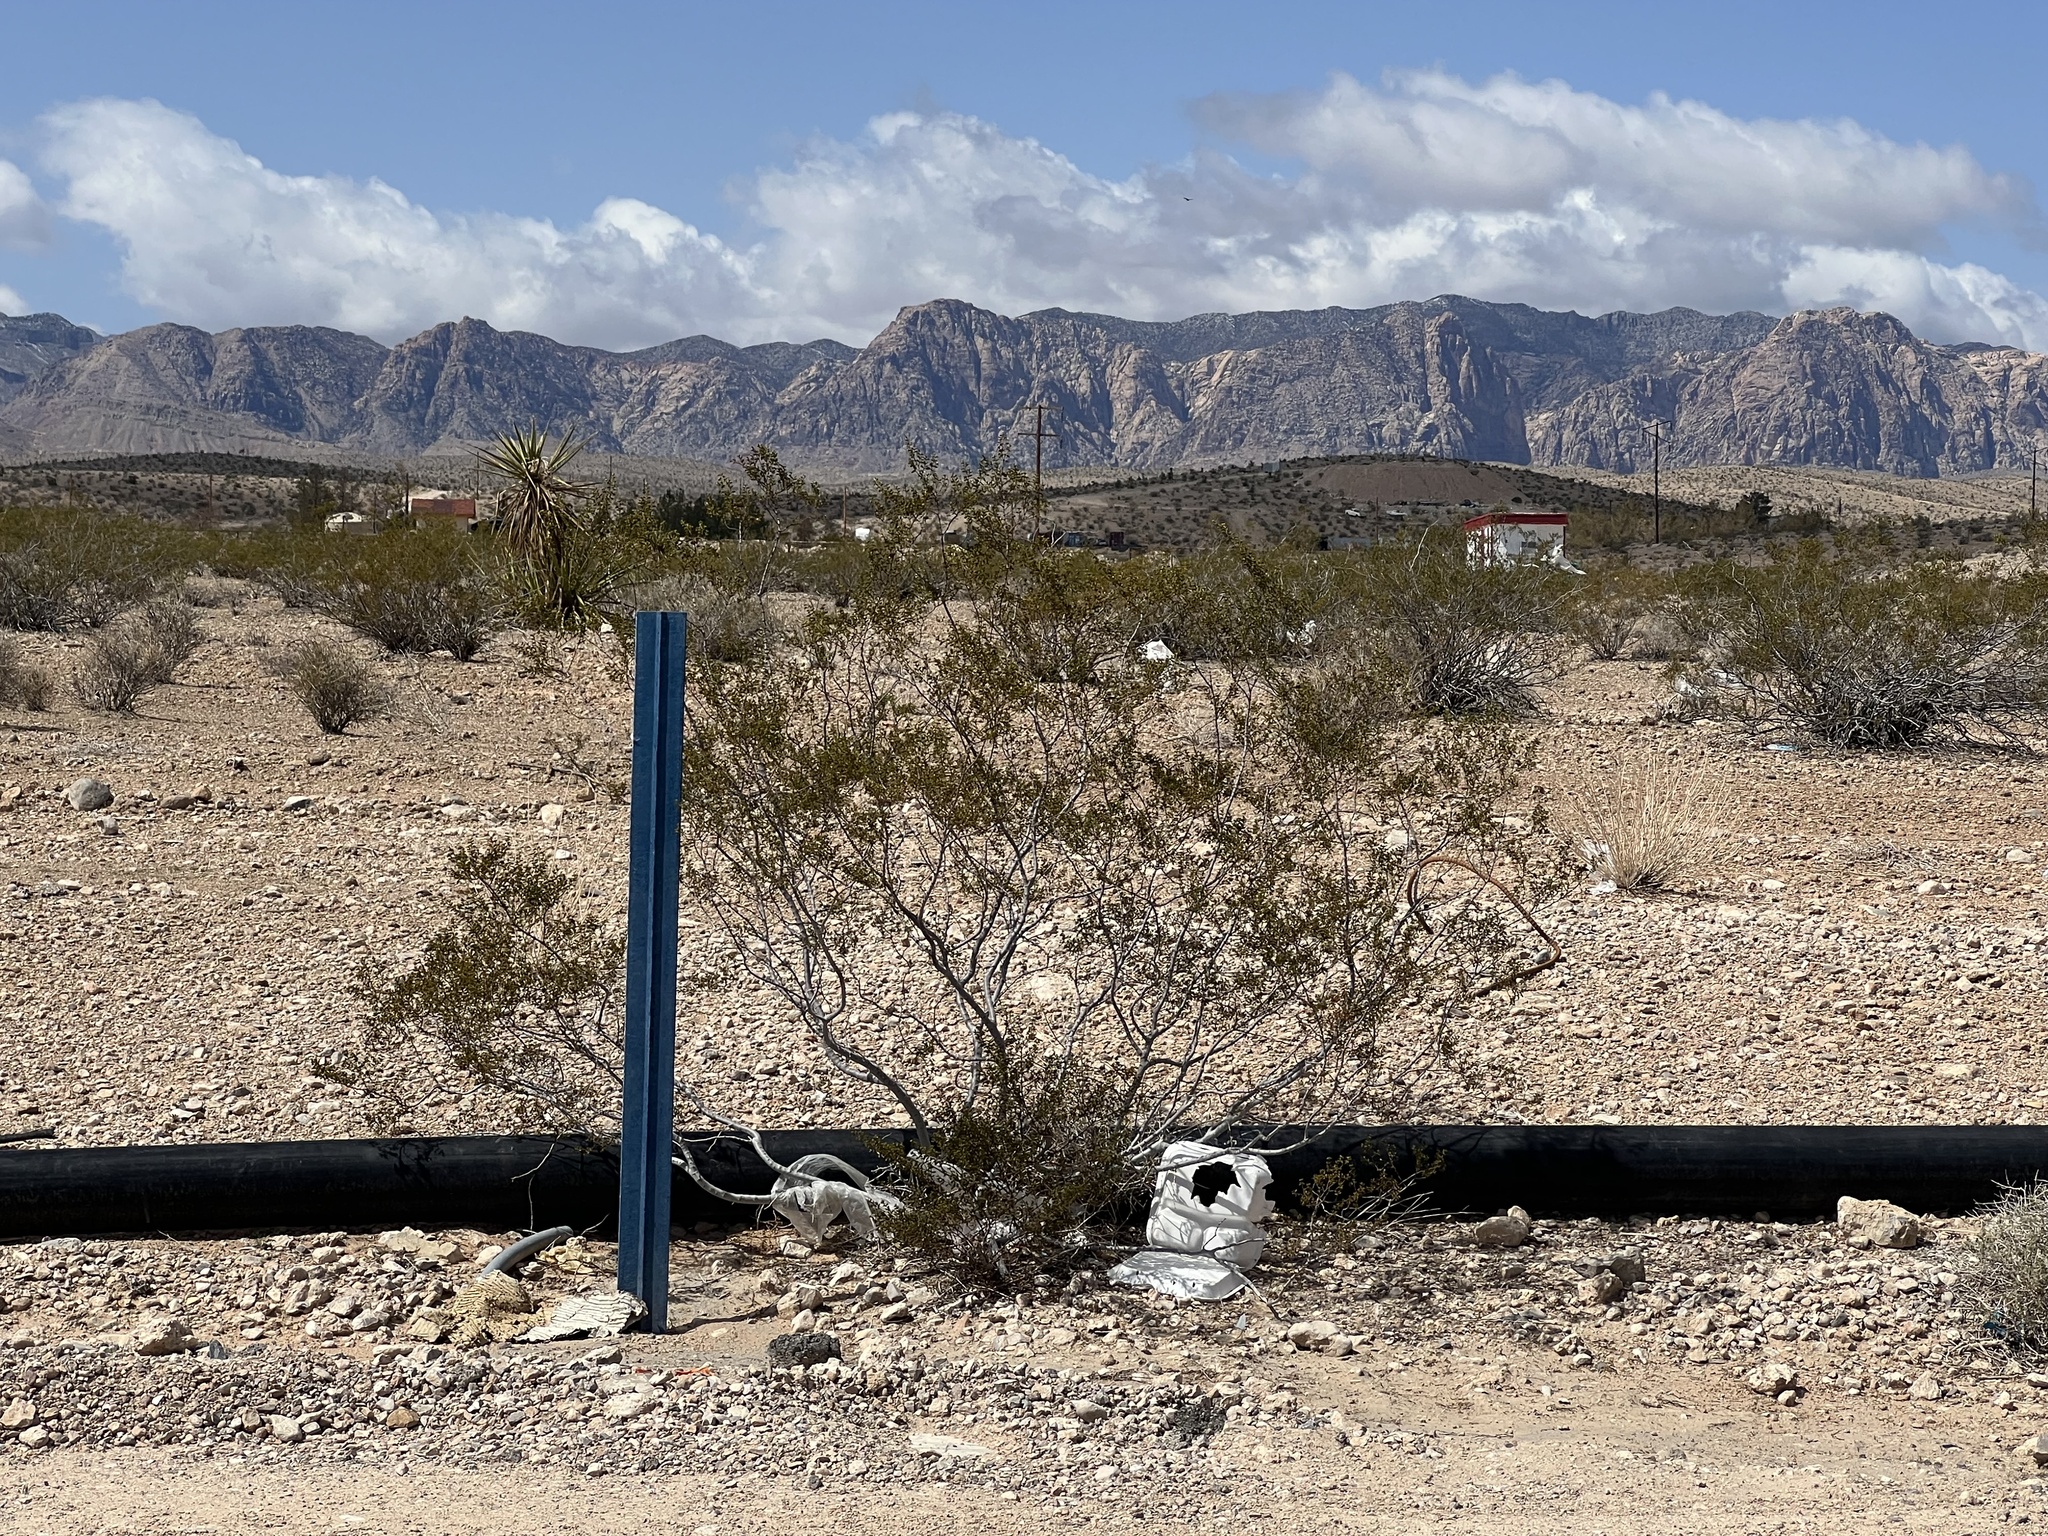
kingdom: Plantae
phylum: Tracheophyta
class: Magnoliopsida
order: Zygophyllales
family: Zygophyllaceae
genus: Larrea
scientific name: Larrea tridentata
